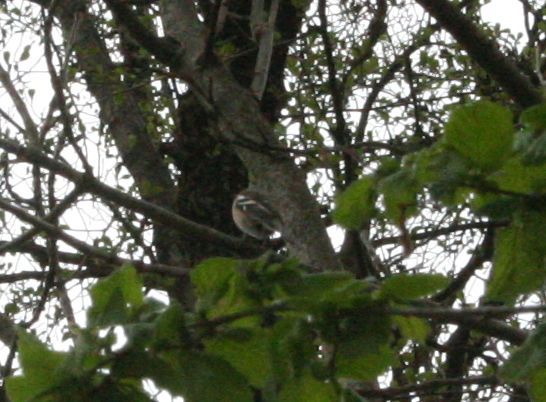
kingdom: Animalia
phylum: Chordata
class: Aves
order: Passeriformes
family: Fringillidae
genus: Fringilla
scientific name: Fringilla coelebs
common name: Common chaffinch
